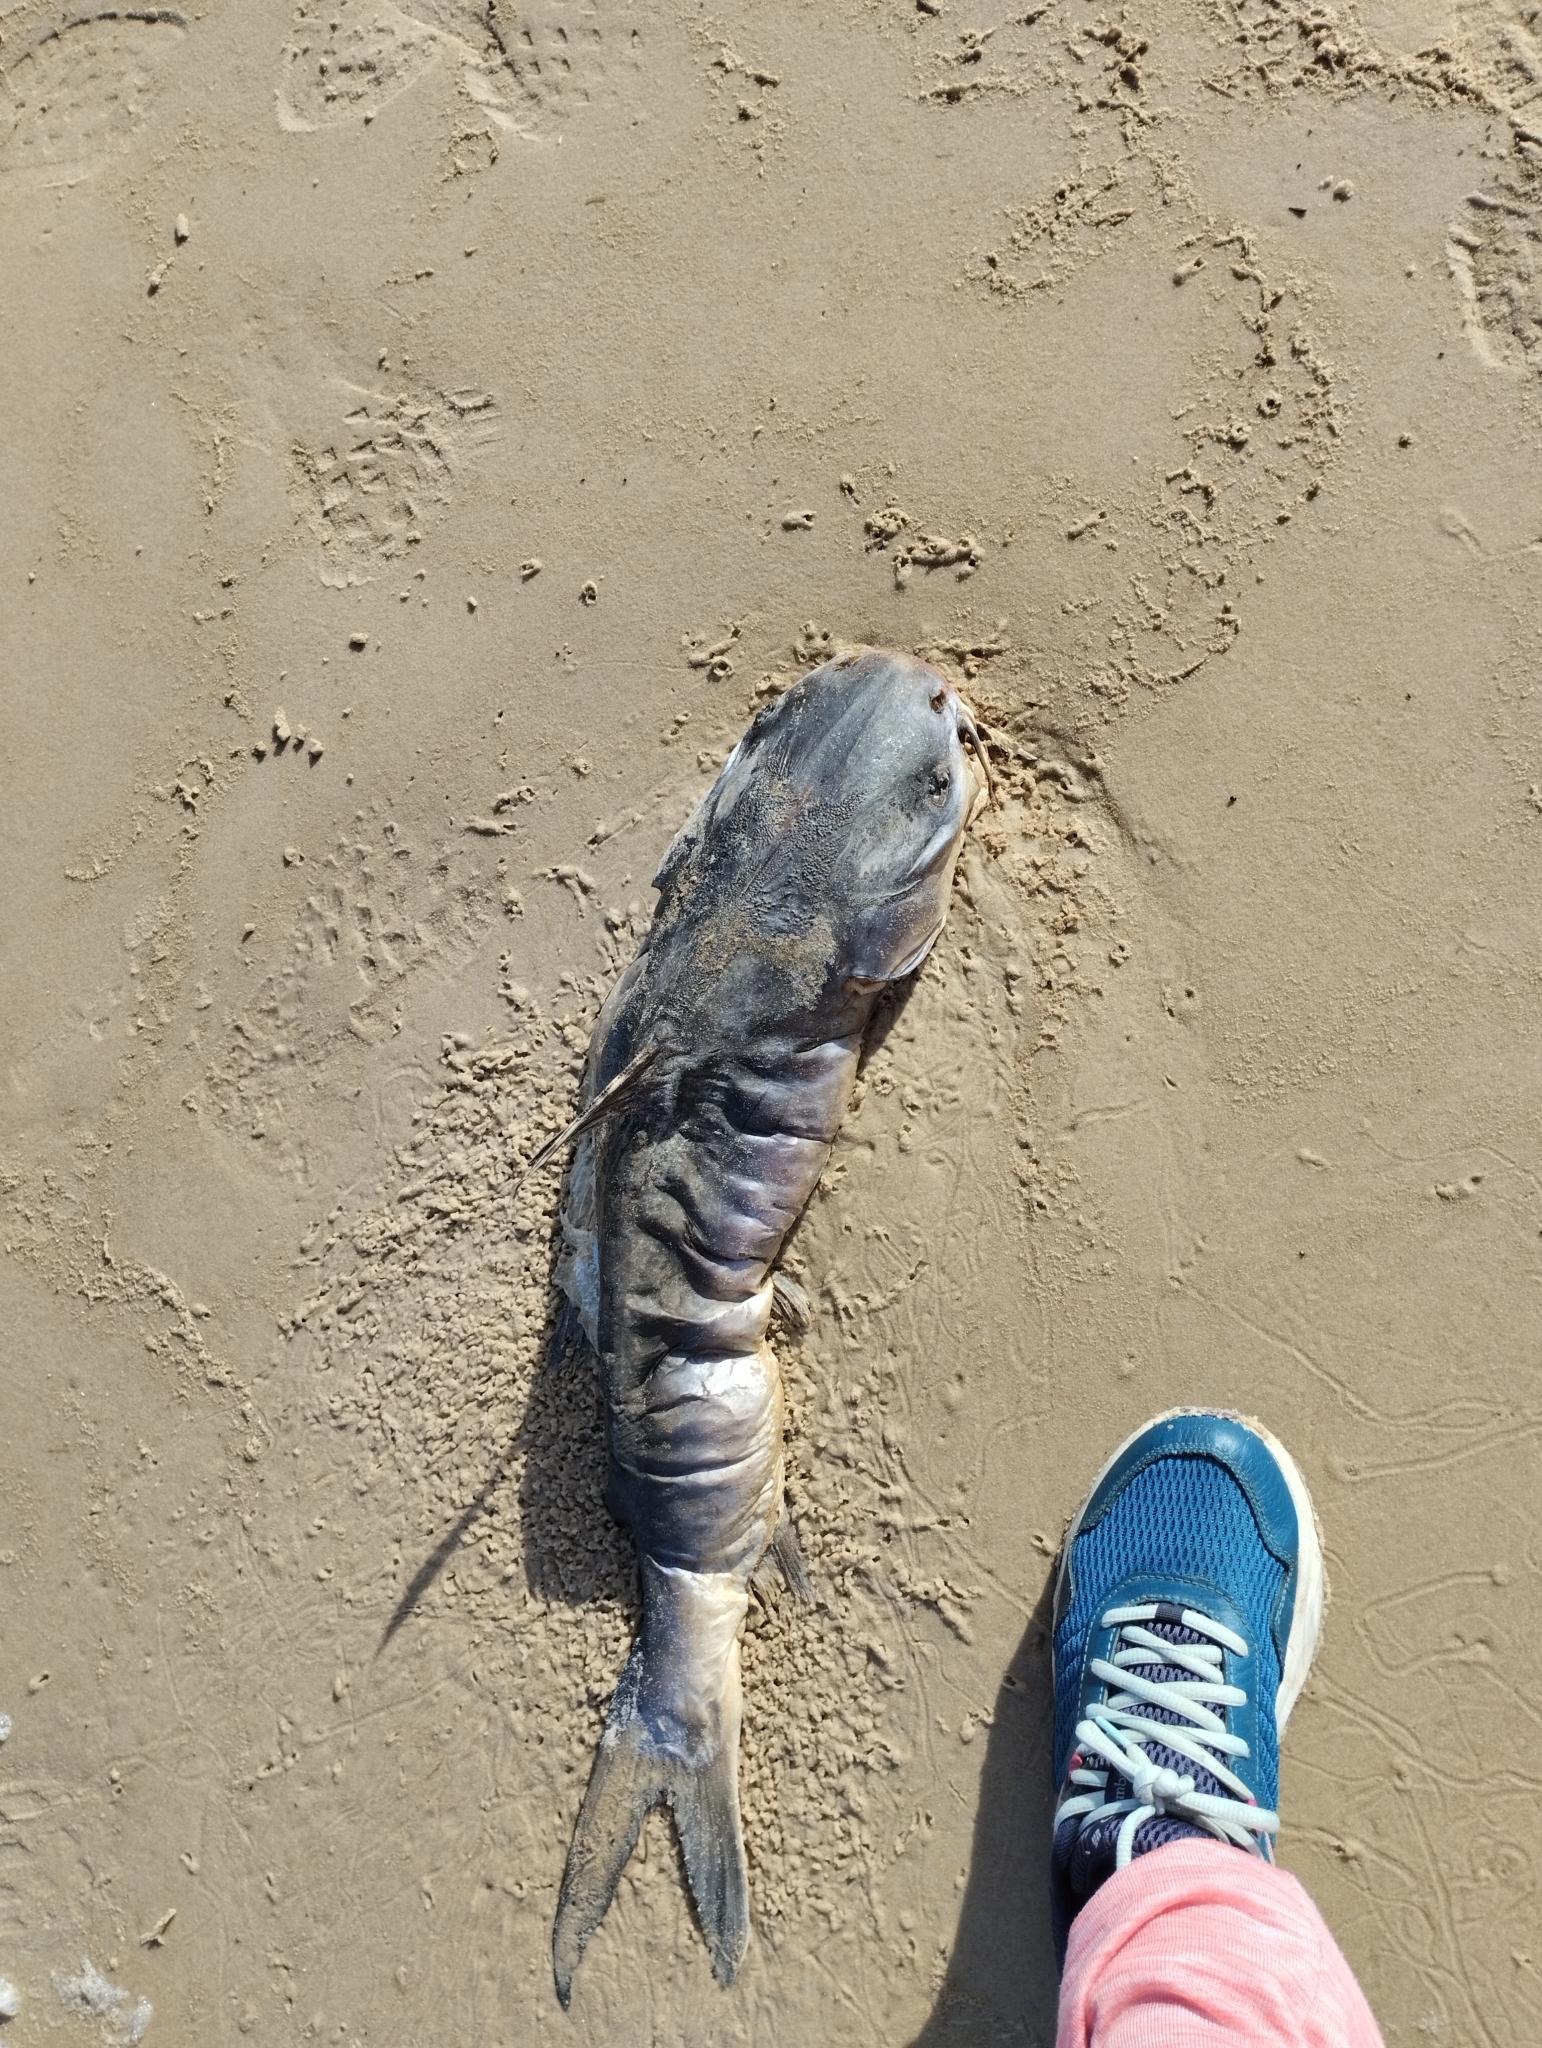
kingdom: Animalia
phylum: Chordata
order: Siluriformes
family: Ariidae
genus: Genidens
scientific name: Genidens barbus
